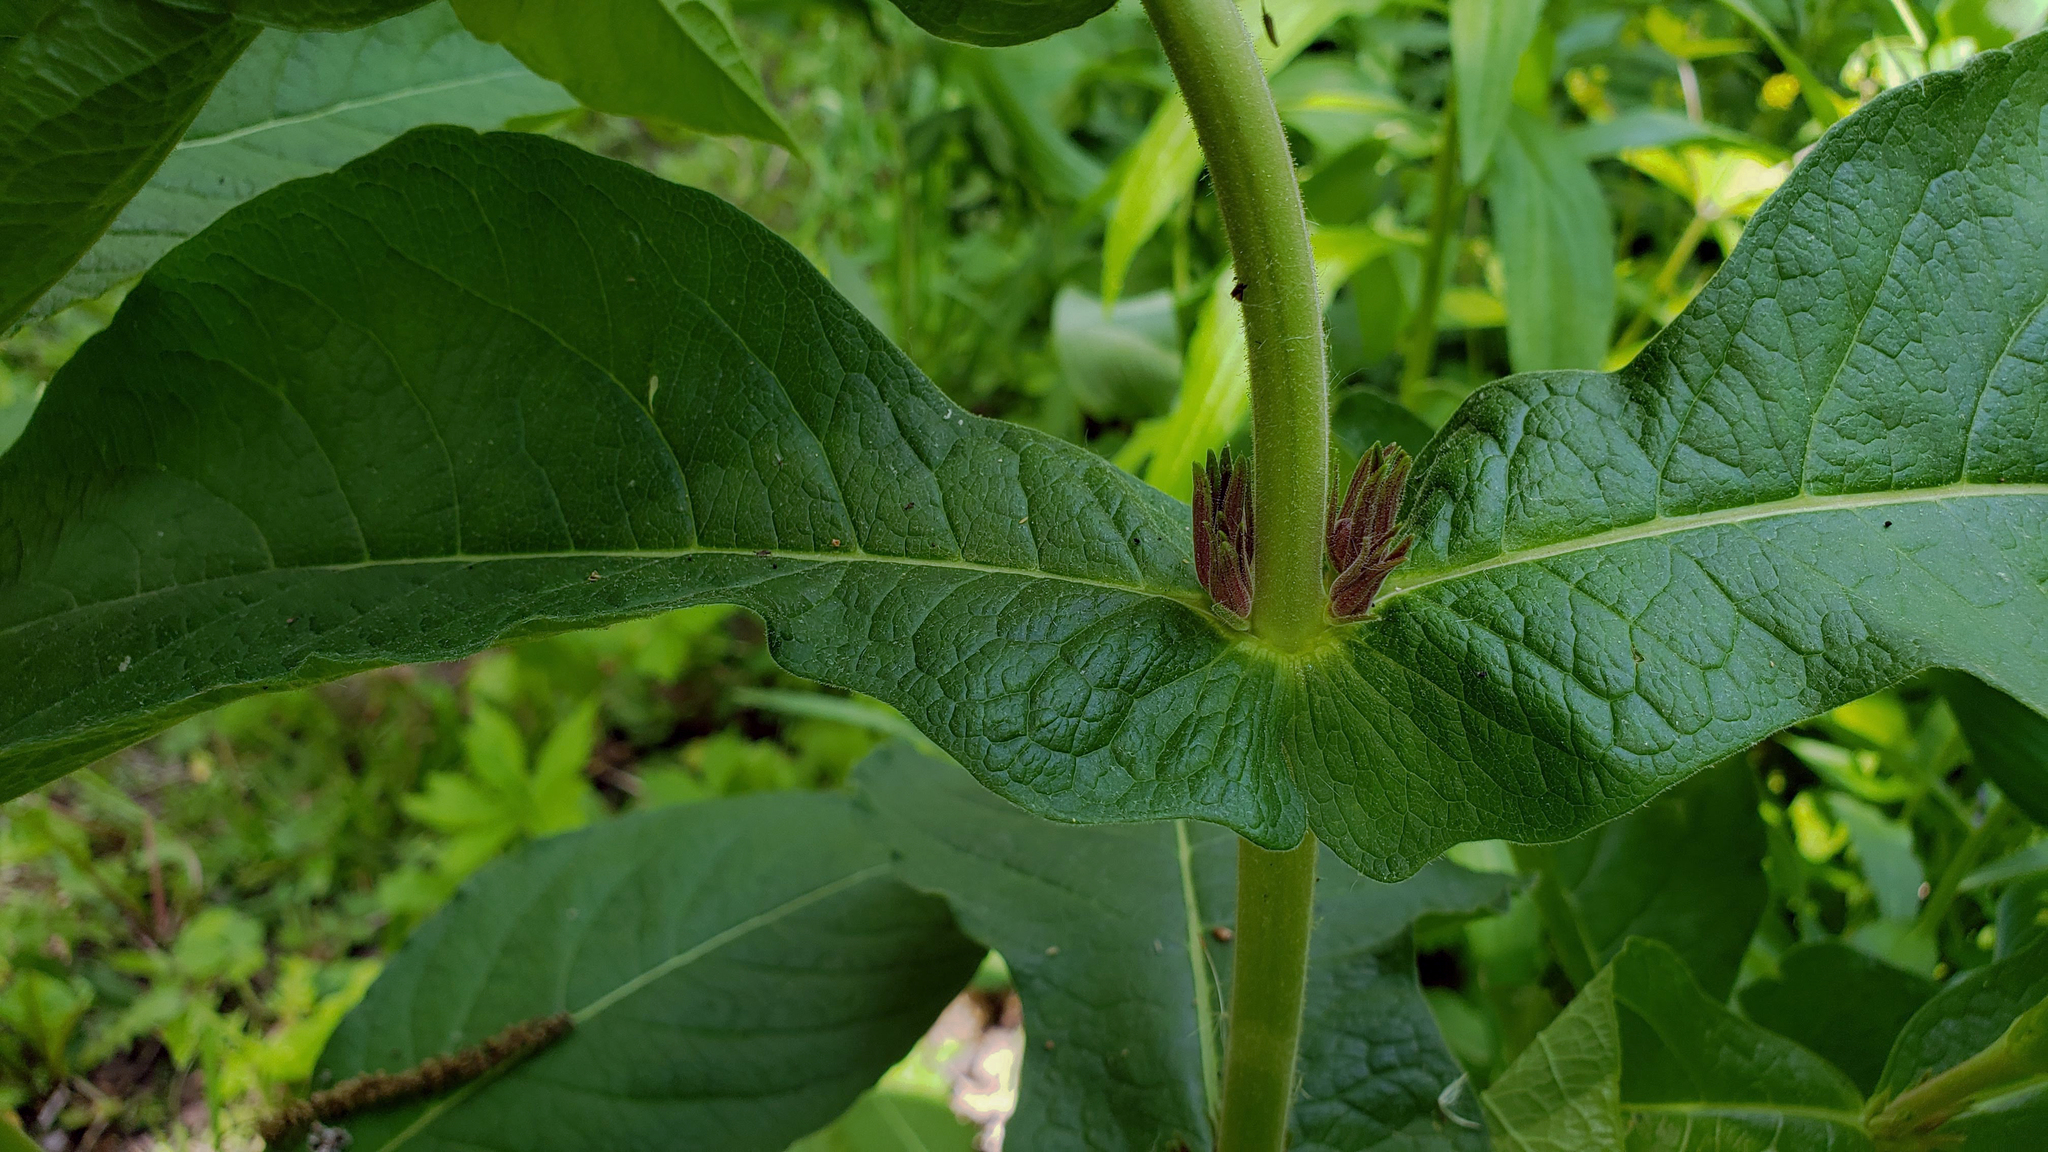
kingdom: Plantae
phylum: Tracheophyta
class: Magnoliopsida
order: Dipsacales
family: Caprifoliaceae
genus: Triosteum
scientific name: Triosteum perfoliatum
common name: Common horse-gentian
